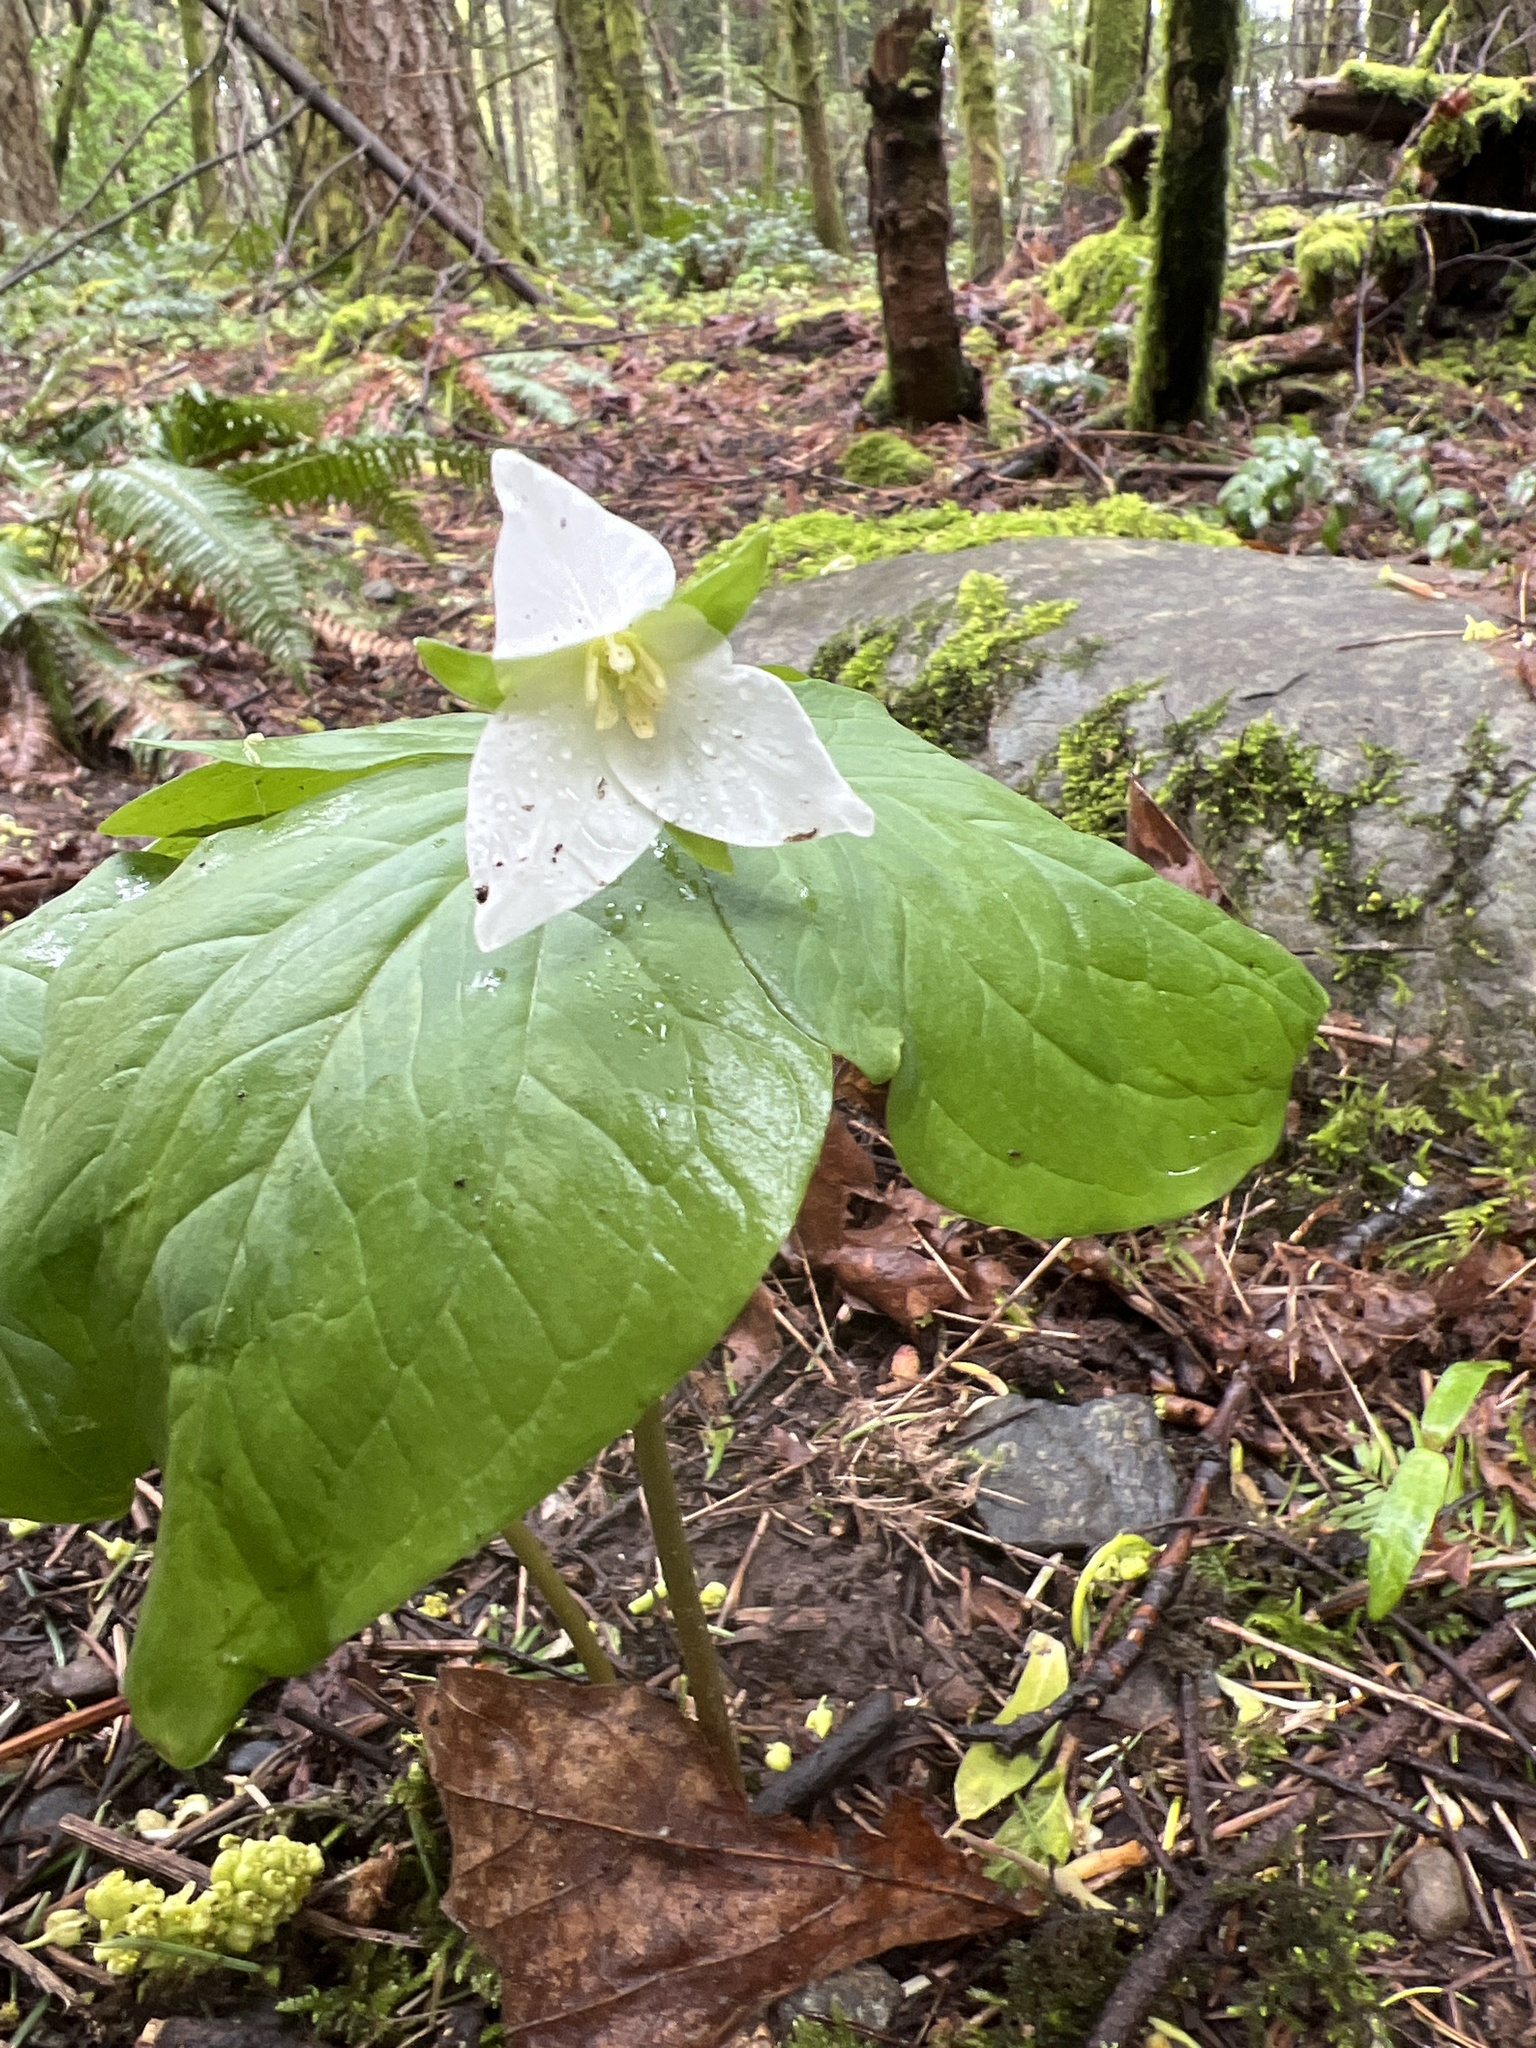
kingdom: Plantae
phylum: Tracheophyta
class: Liliopsida
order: Liliales
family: Melanthiaceae
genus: Trillium
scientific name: Trillium ovatum
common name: Pacific trillium
